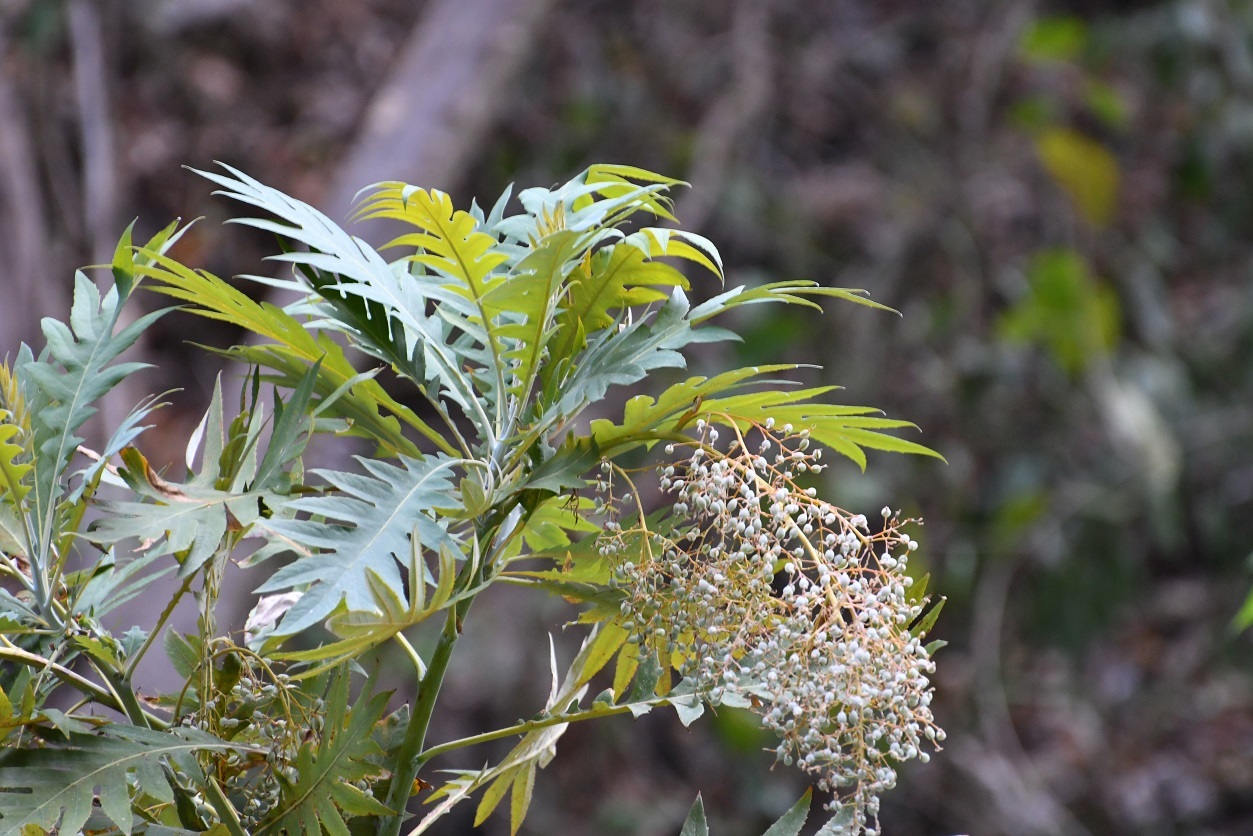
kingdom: Plantae
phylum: Tracheophyta
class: Magnoliopsida
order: Ranunculales
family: Papaveraceae
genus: Bocconia
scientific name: Bocconia arborea
